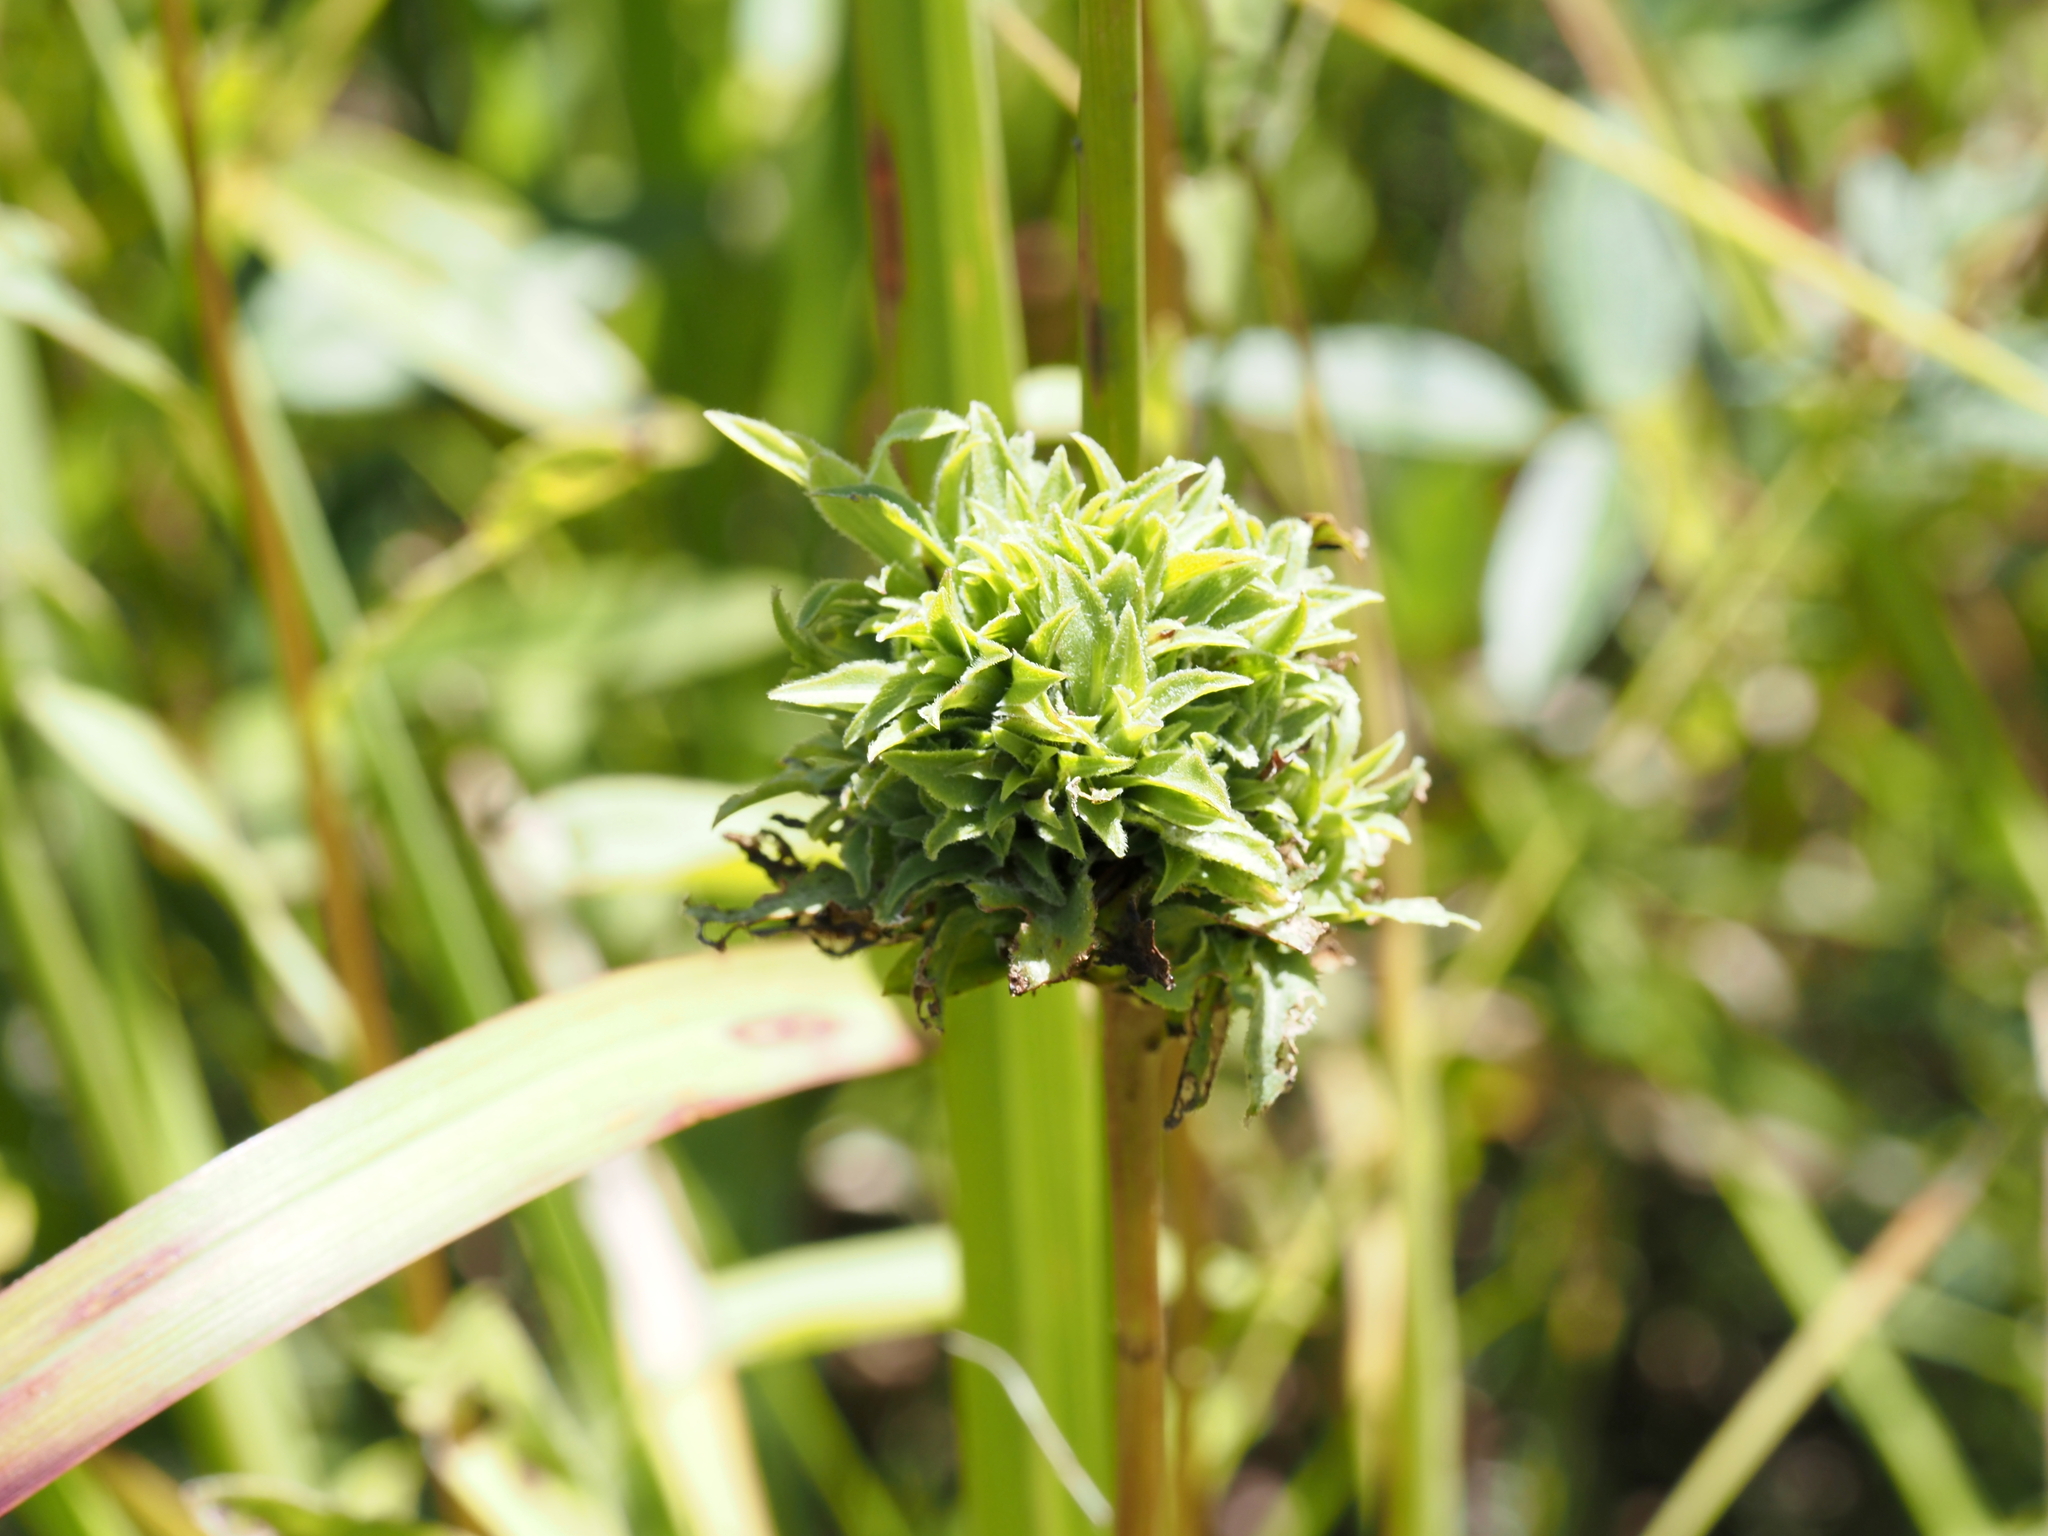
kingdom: Animalia
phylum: Arthropoda
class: Insecta
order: Diptera
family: Cecidomyiidae
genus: Asphondylia
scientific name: Asphondylia monacha
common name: Nun midge
